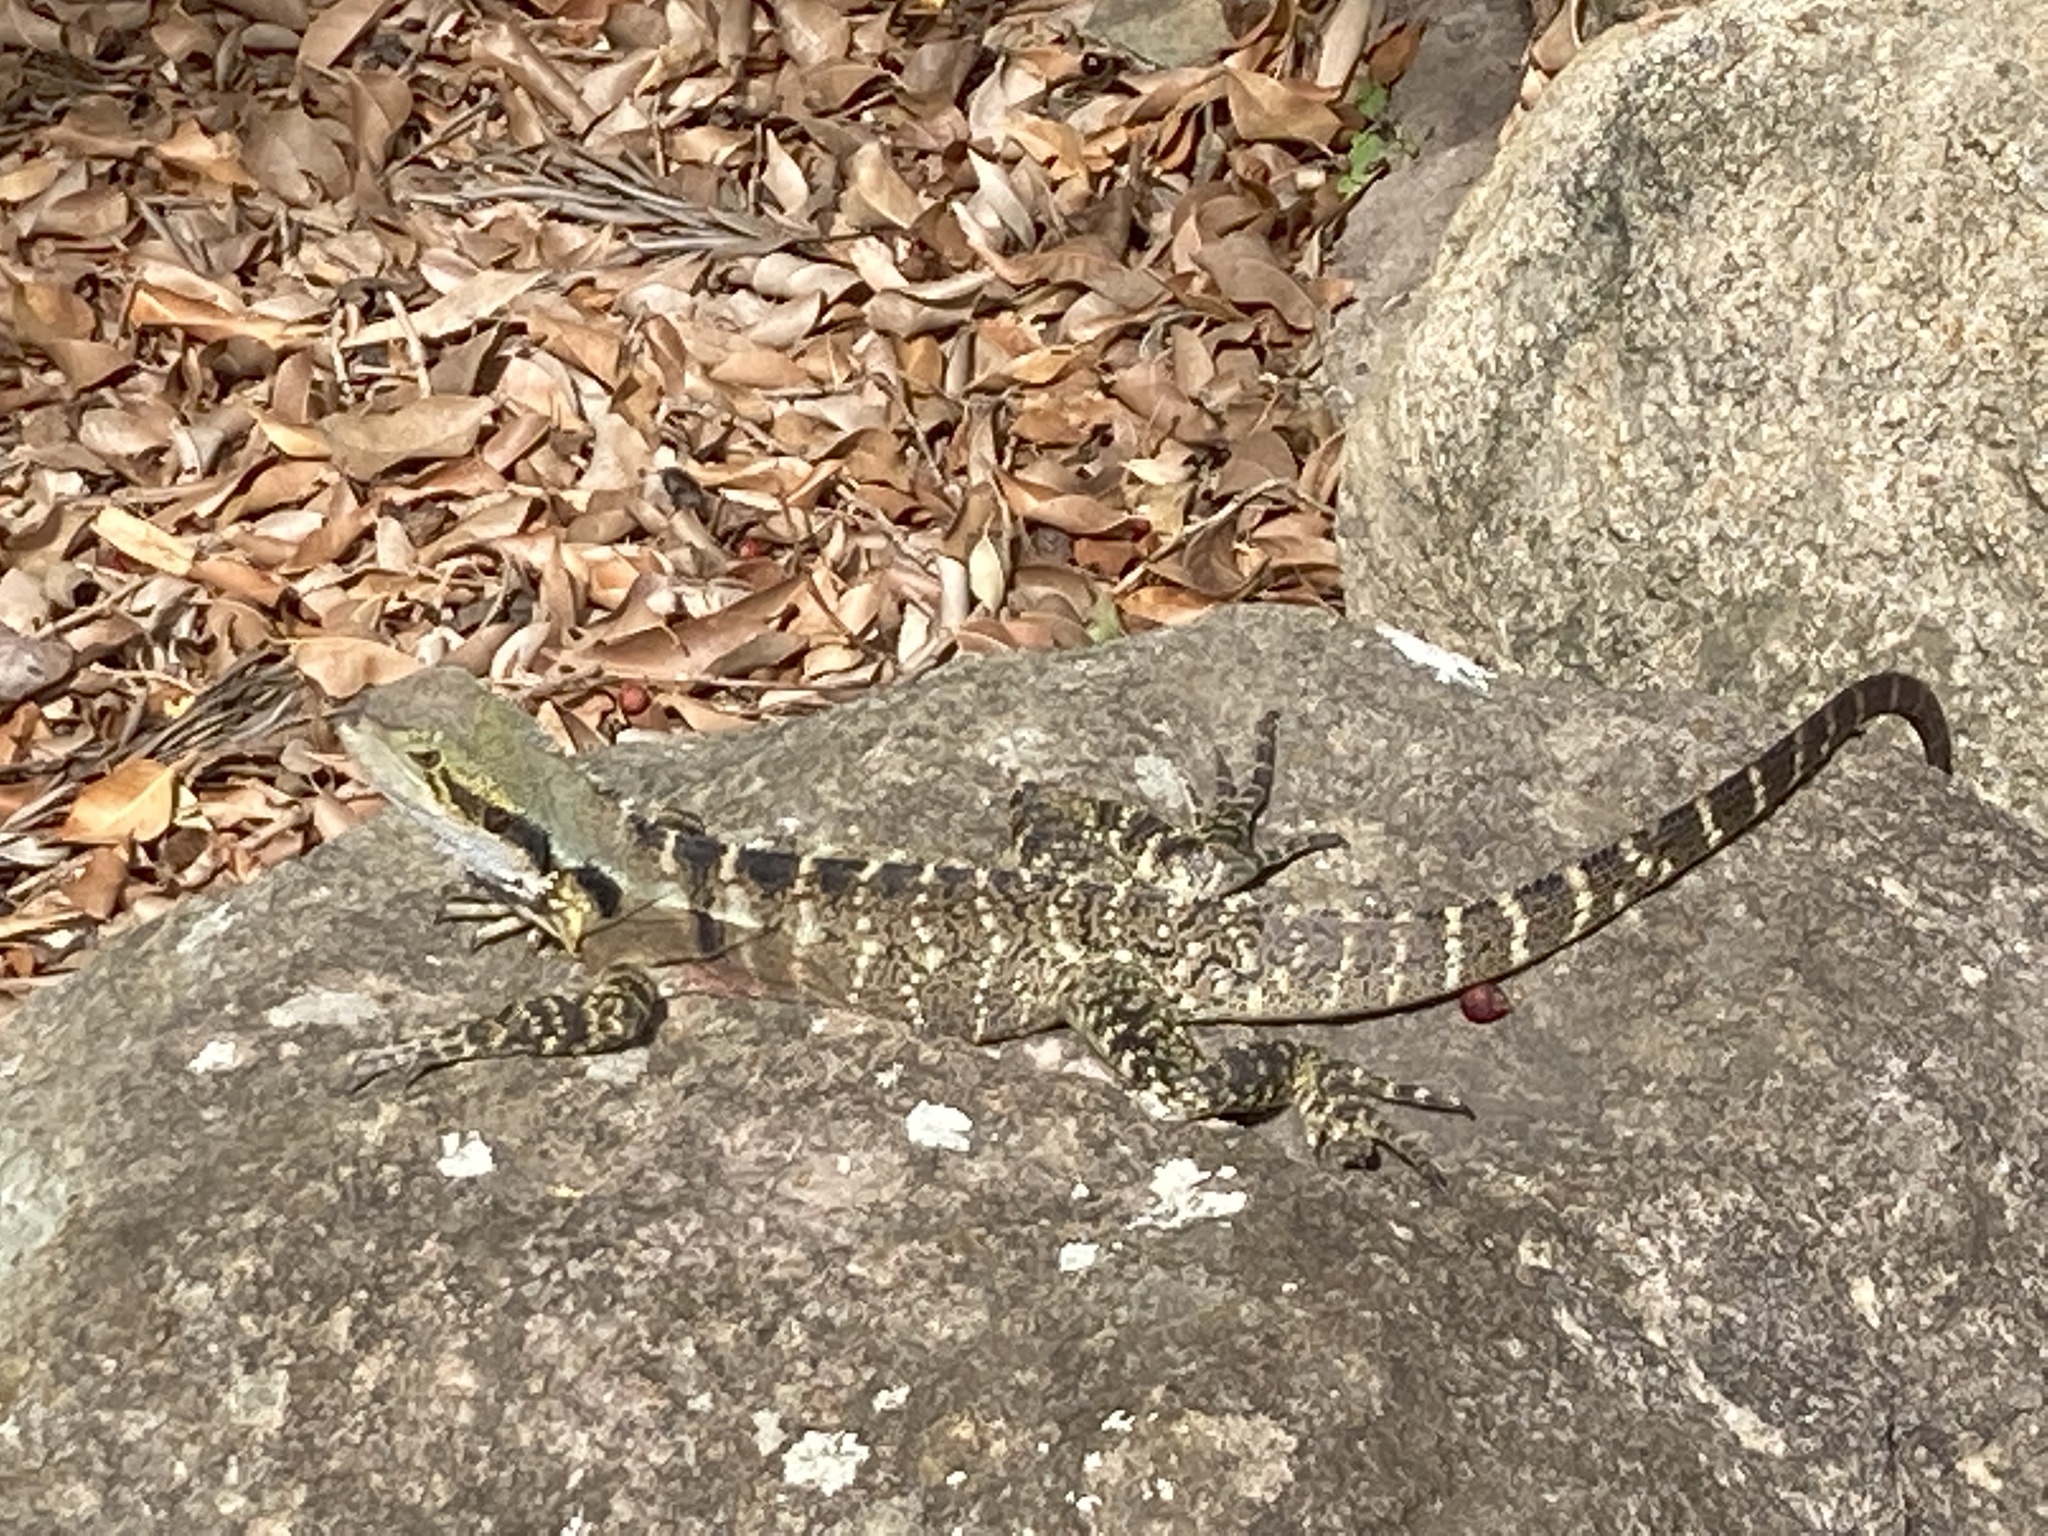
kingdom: Animalia
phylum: Chordata
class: Squamata
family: Agamidae
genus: Intellagama
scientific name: Intellagama lesueurii
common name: Eastern water dragon
